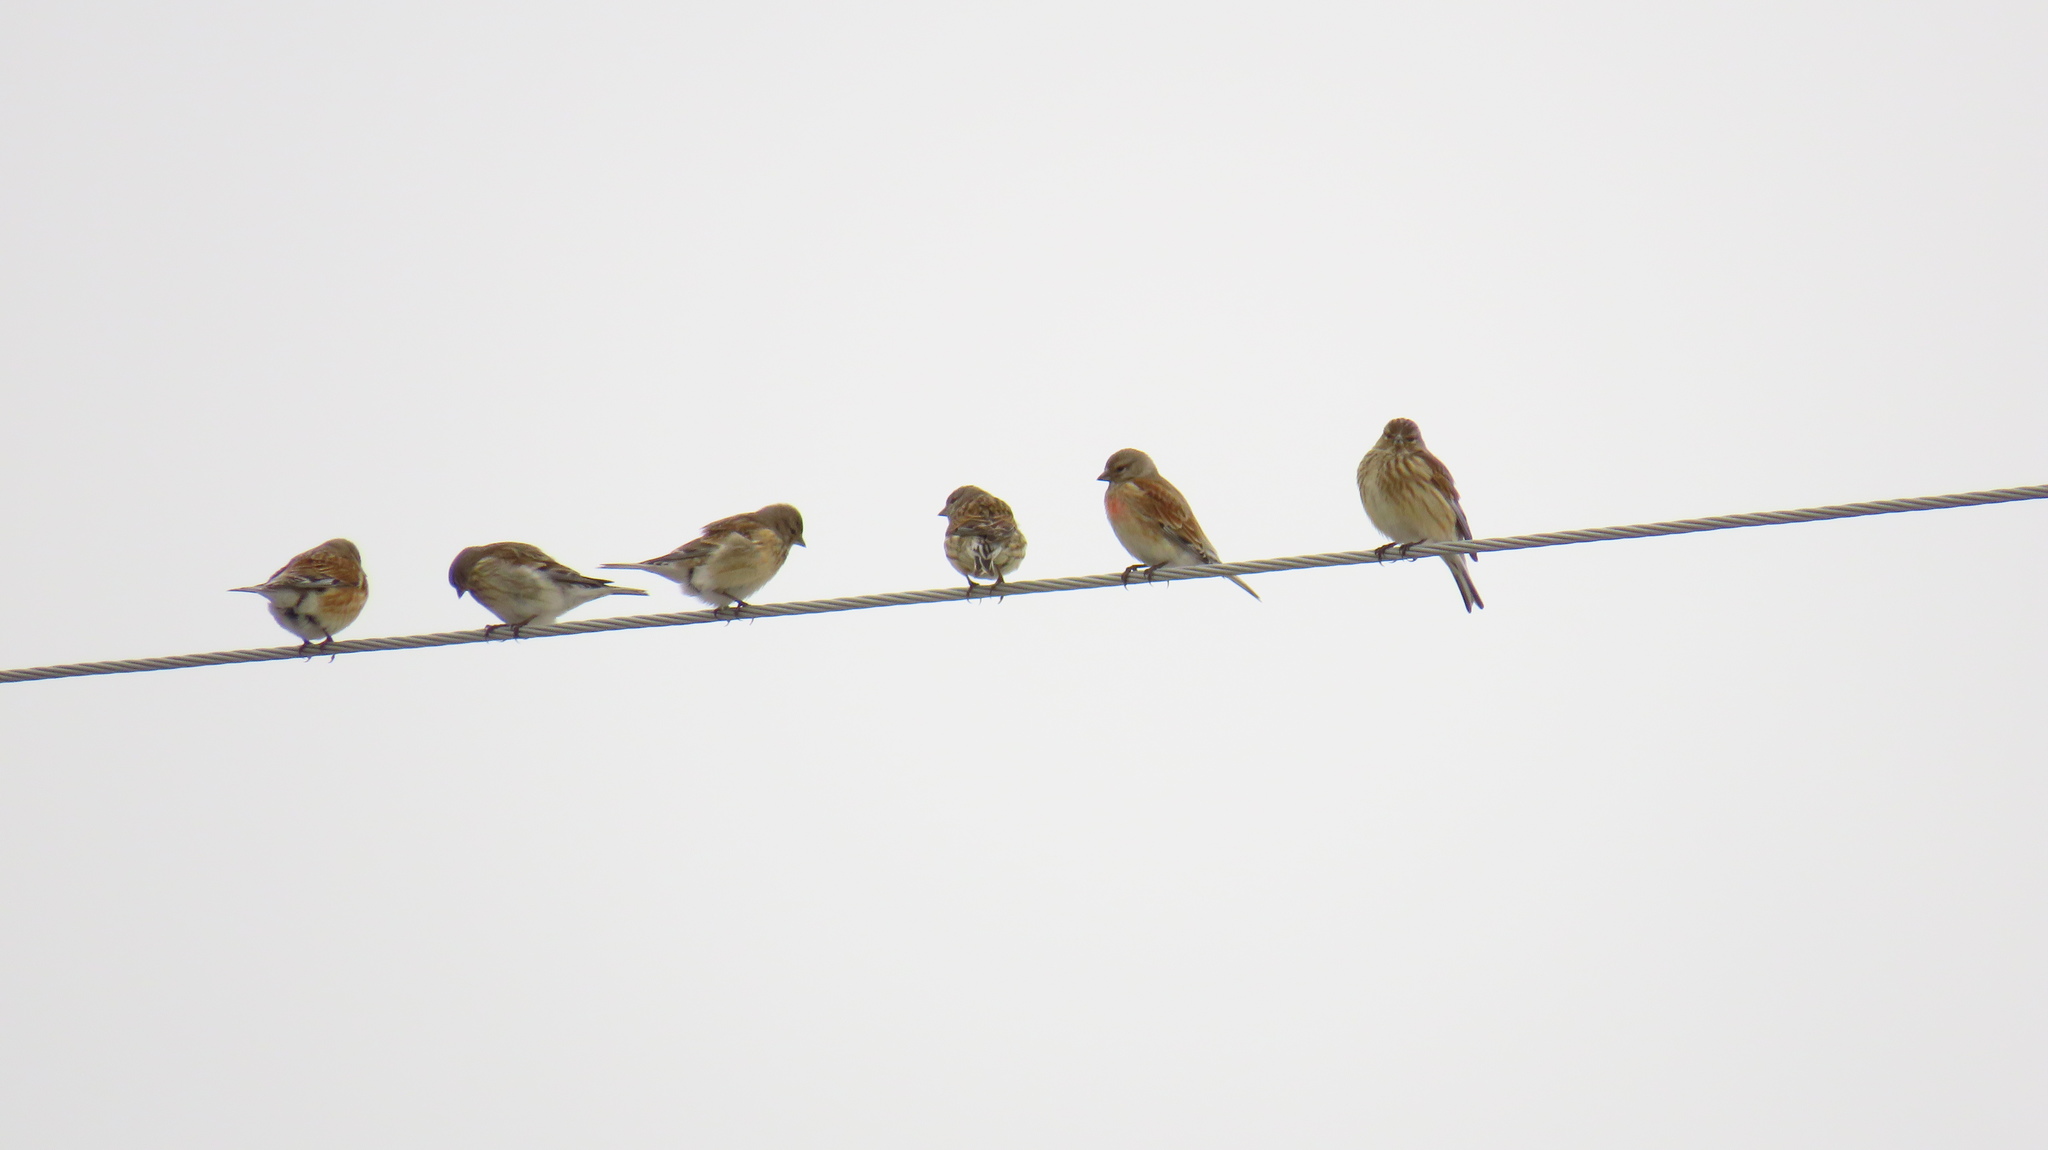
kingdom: Animalia
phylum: Chordata
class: Aves
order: Passeriformes
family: Fringillidae
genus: Linaria
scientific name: Linaria cannabina
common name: Common linnet
